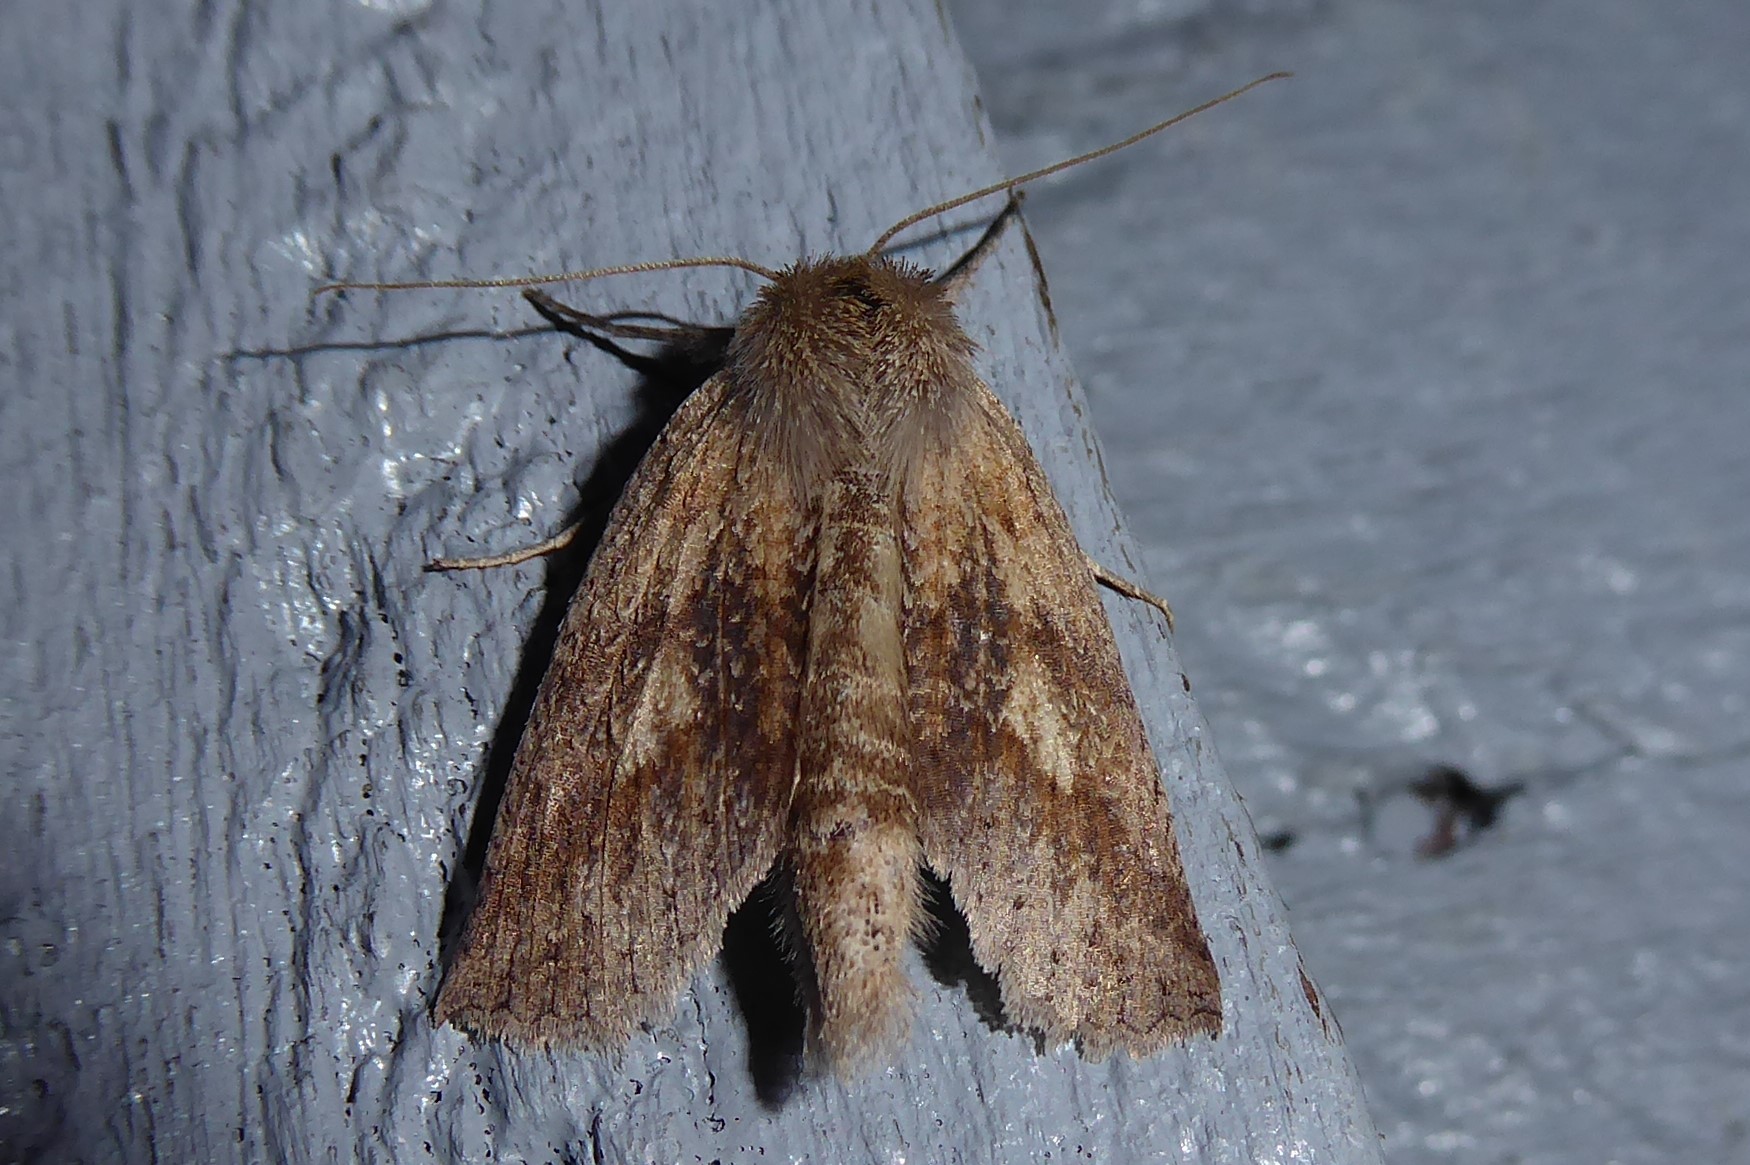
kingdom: Animalia
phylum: Arthropoda
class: Insecta
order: Lepidoptera
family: Geometridae
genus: Declana
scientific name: Declana leptomera
